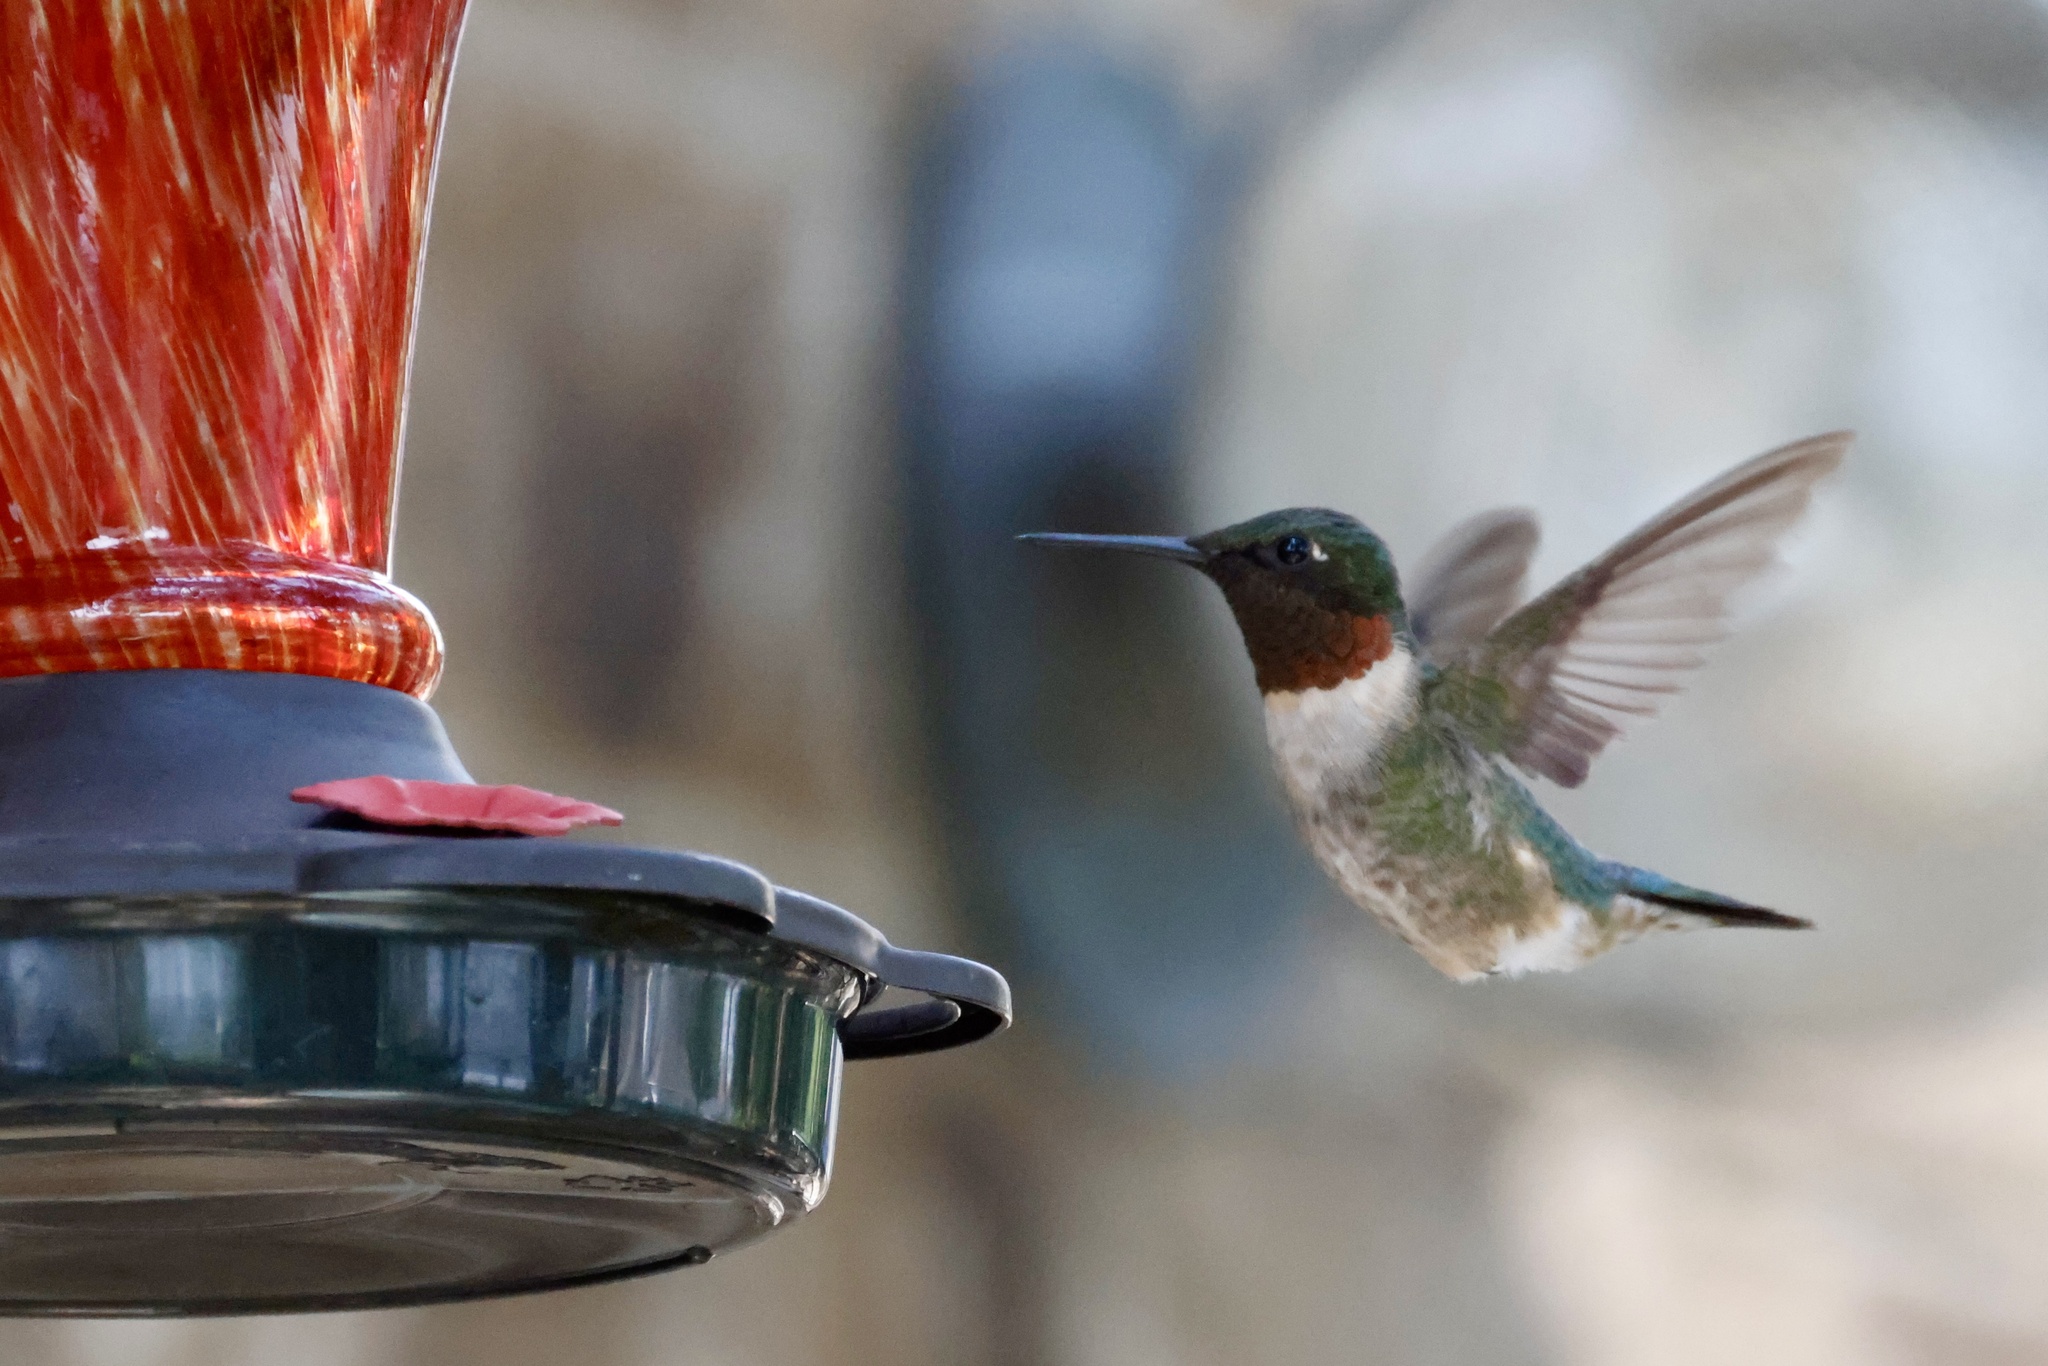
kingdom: Animalia
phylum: Chordata
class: Aves
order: Apodiformes
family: Trochilidae
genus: Archilochus
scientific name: Archilochus colubris
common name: Ruby-throated hummingbird
